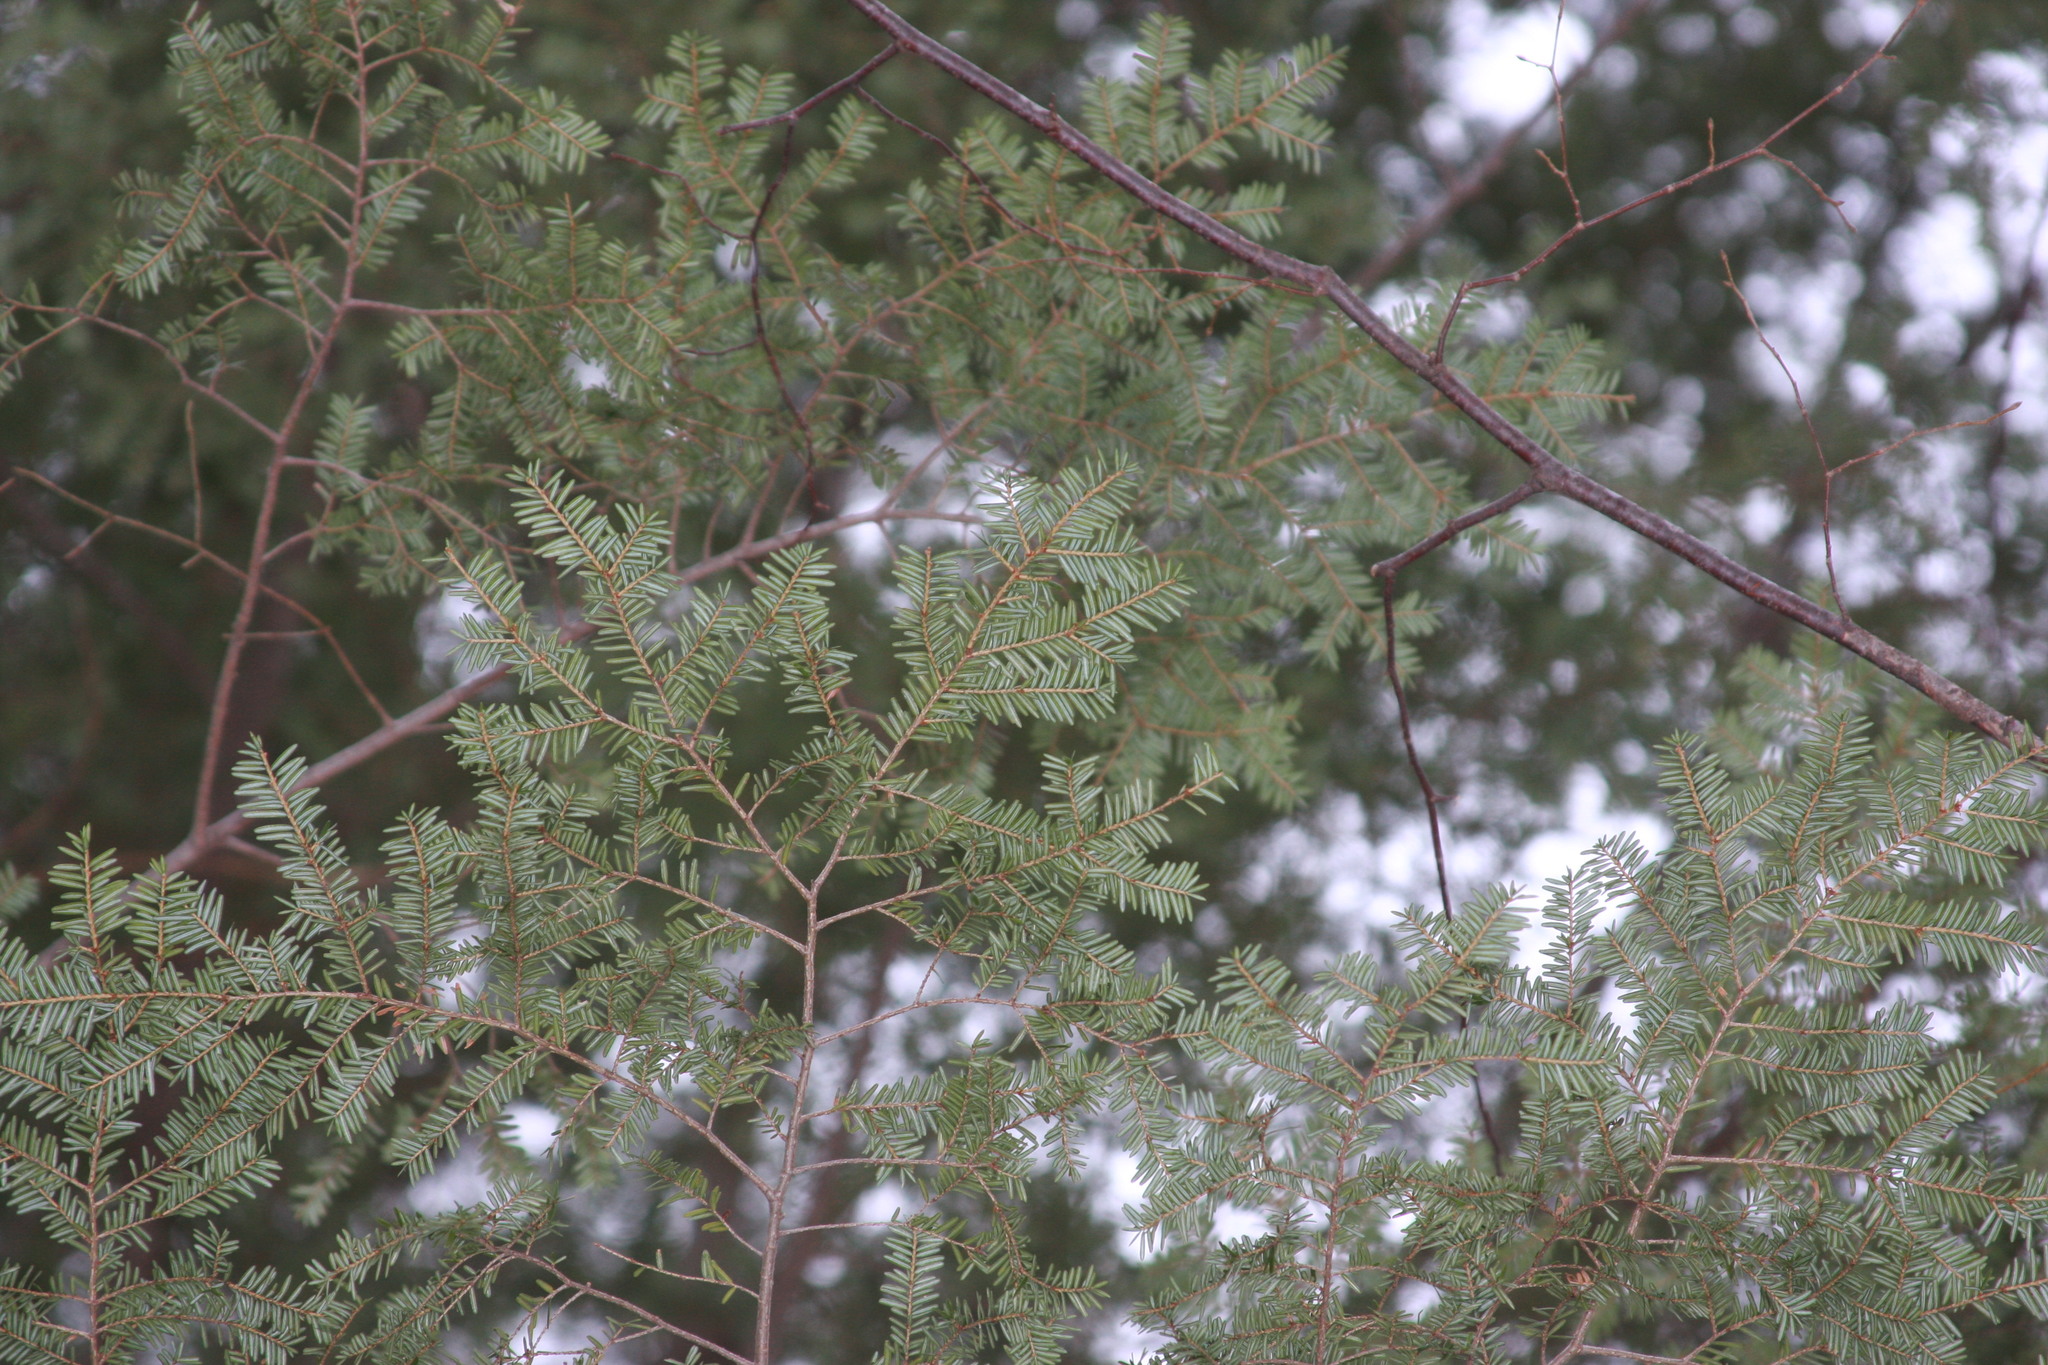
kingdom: Plantae
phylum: Tracheophyta
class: Pinopsida
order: Pinales
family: Pinaceae
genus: Tsuga
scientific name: Tsuga canadensis
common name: Eastern hemlock
